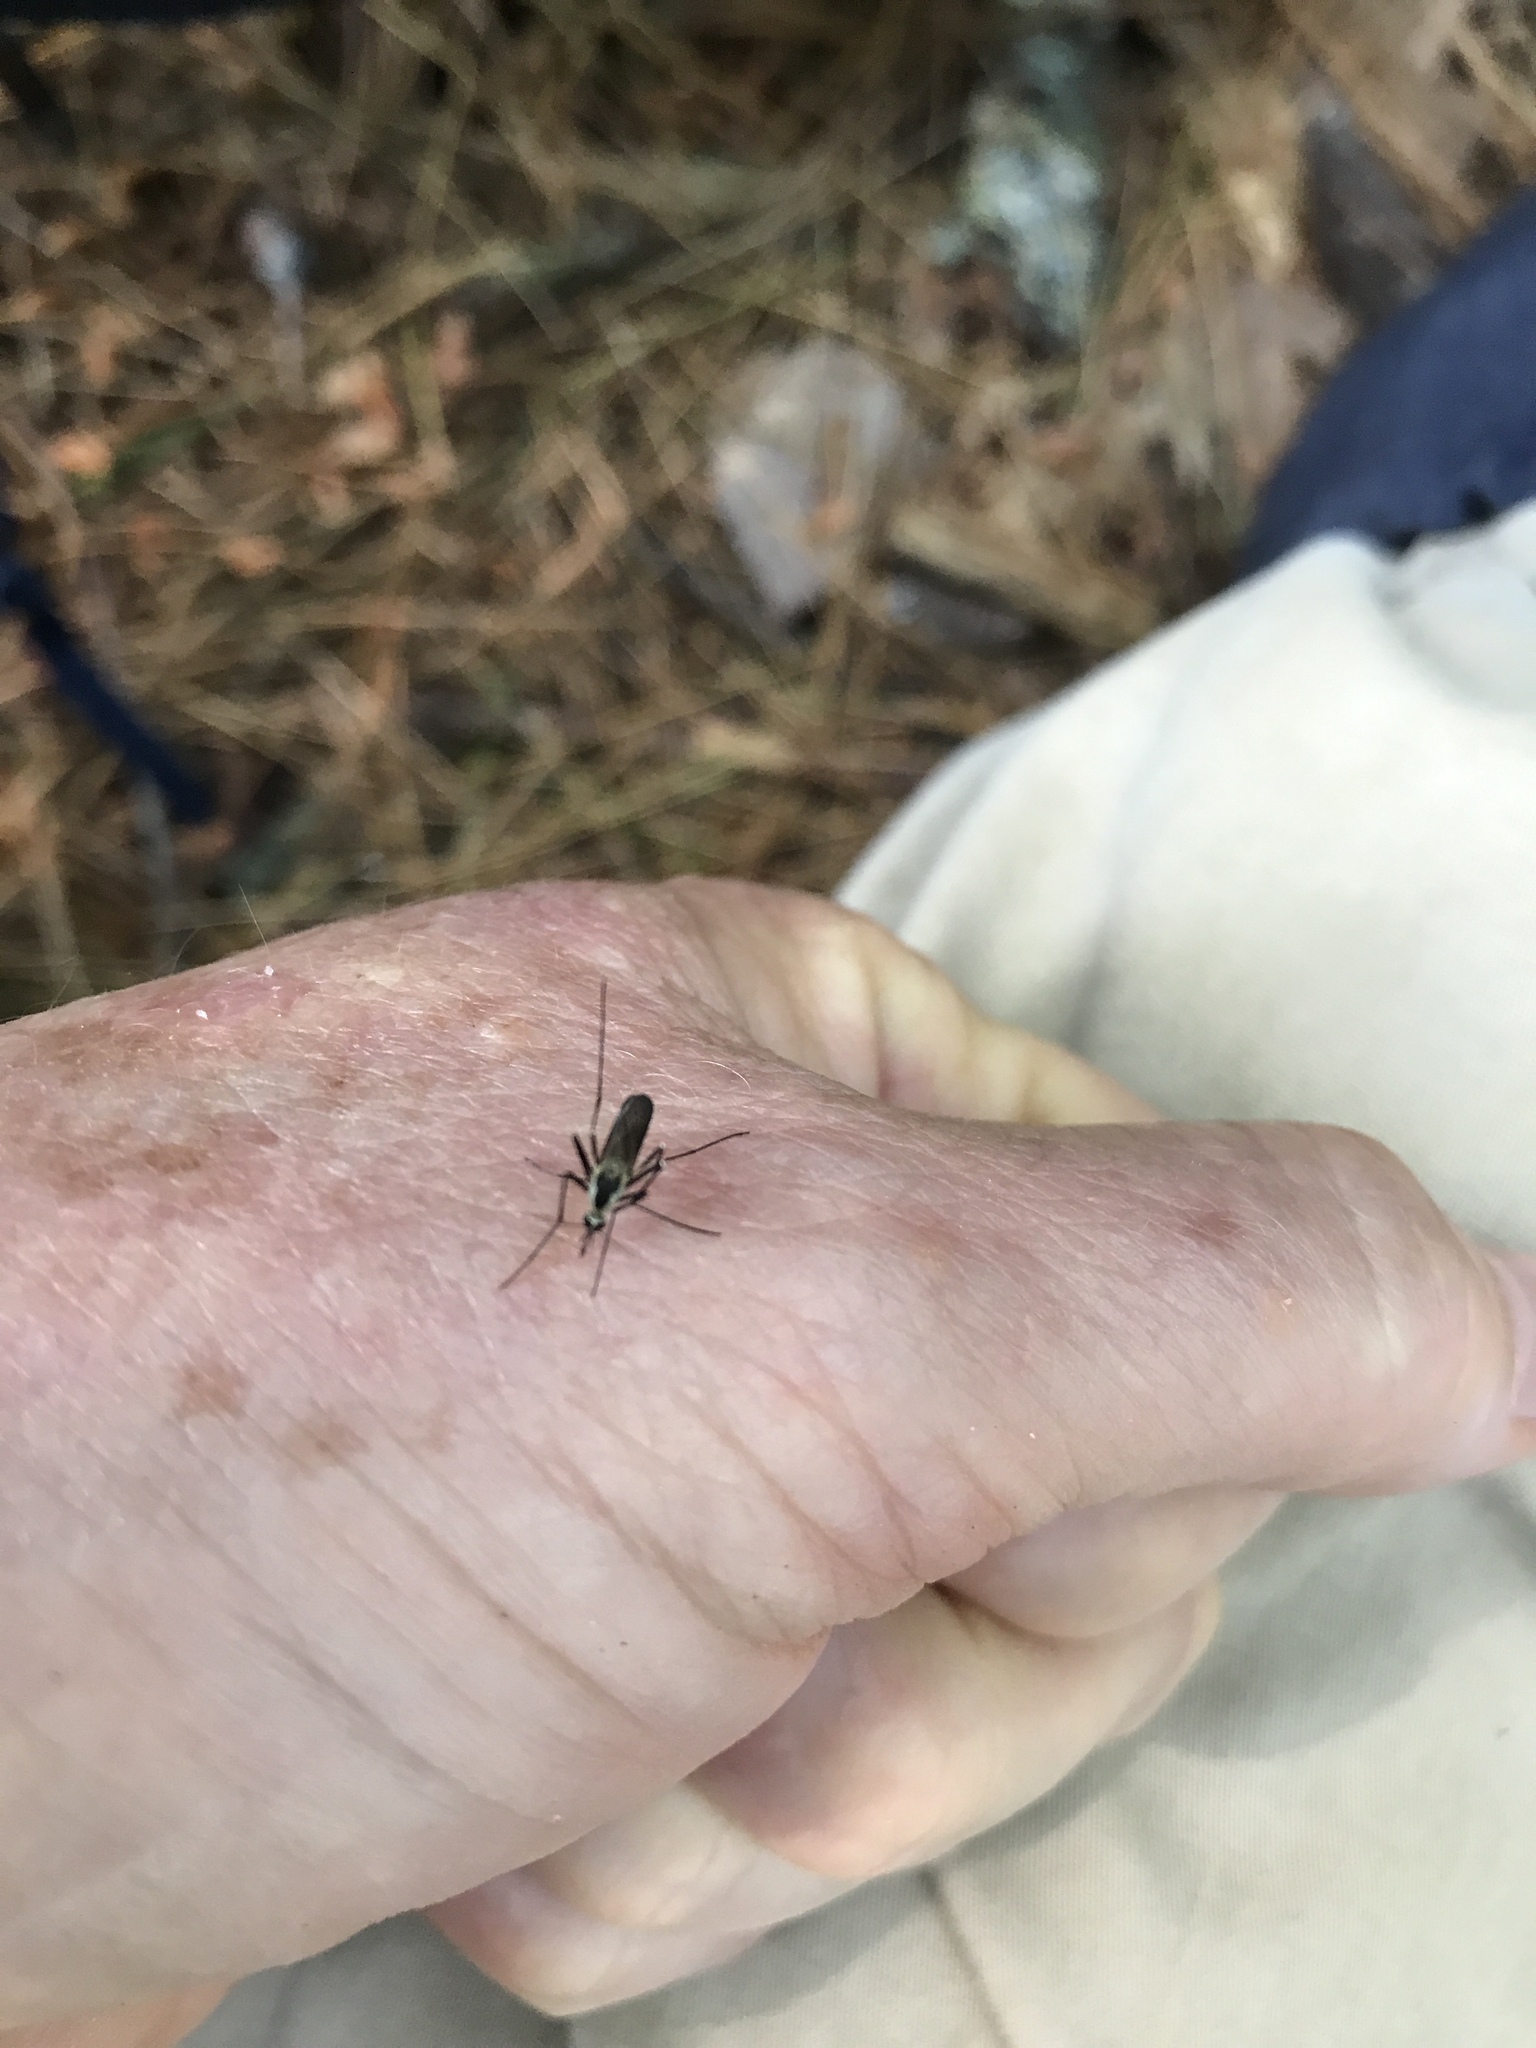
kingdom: Animalia
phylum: Arthropoda
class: Insecta
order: Diptera
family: Culicidae
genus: Aedes
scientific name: Aedes triseriatus
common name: Eastern treehole mosquito
